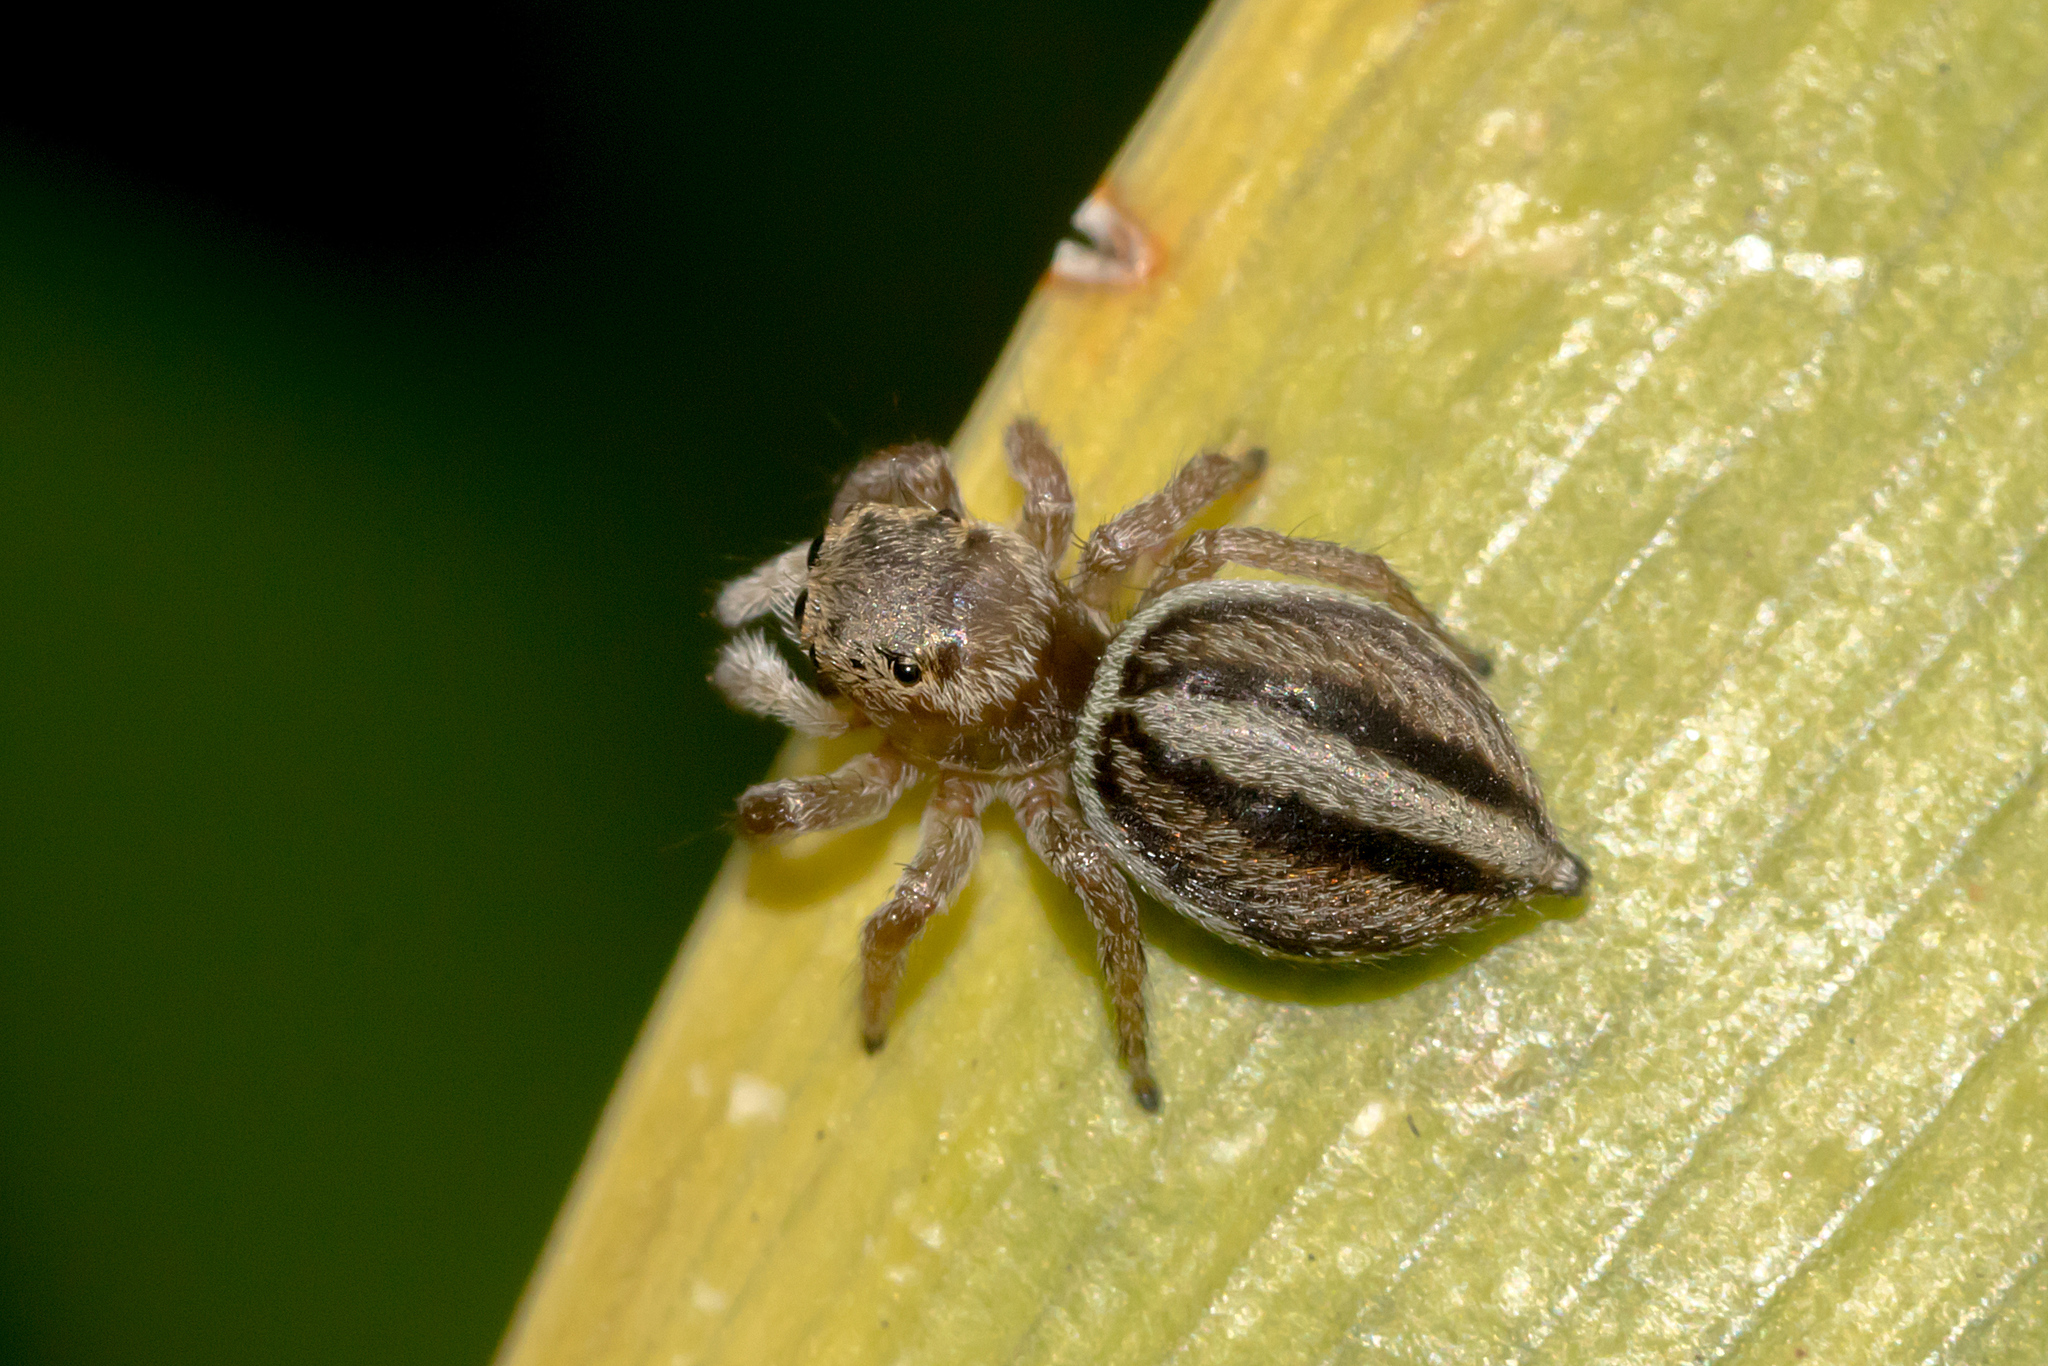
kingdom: Animalia
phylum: Arthropoda
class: Arachnida
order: Araneae
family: Salticidae
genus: Maratus
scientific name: Maratus scutulatus
